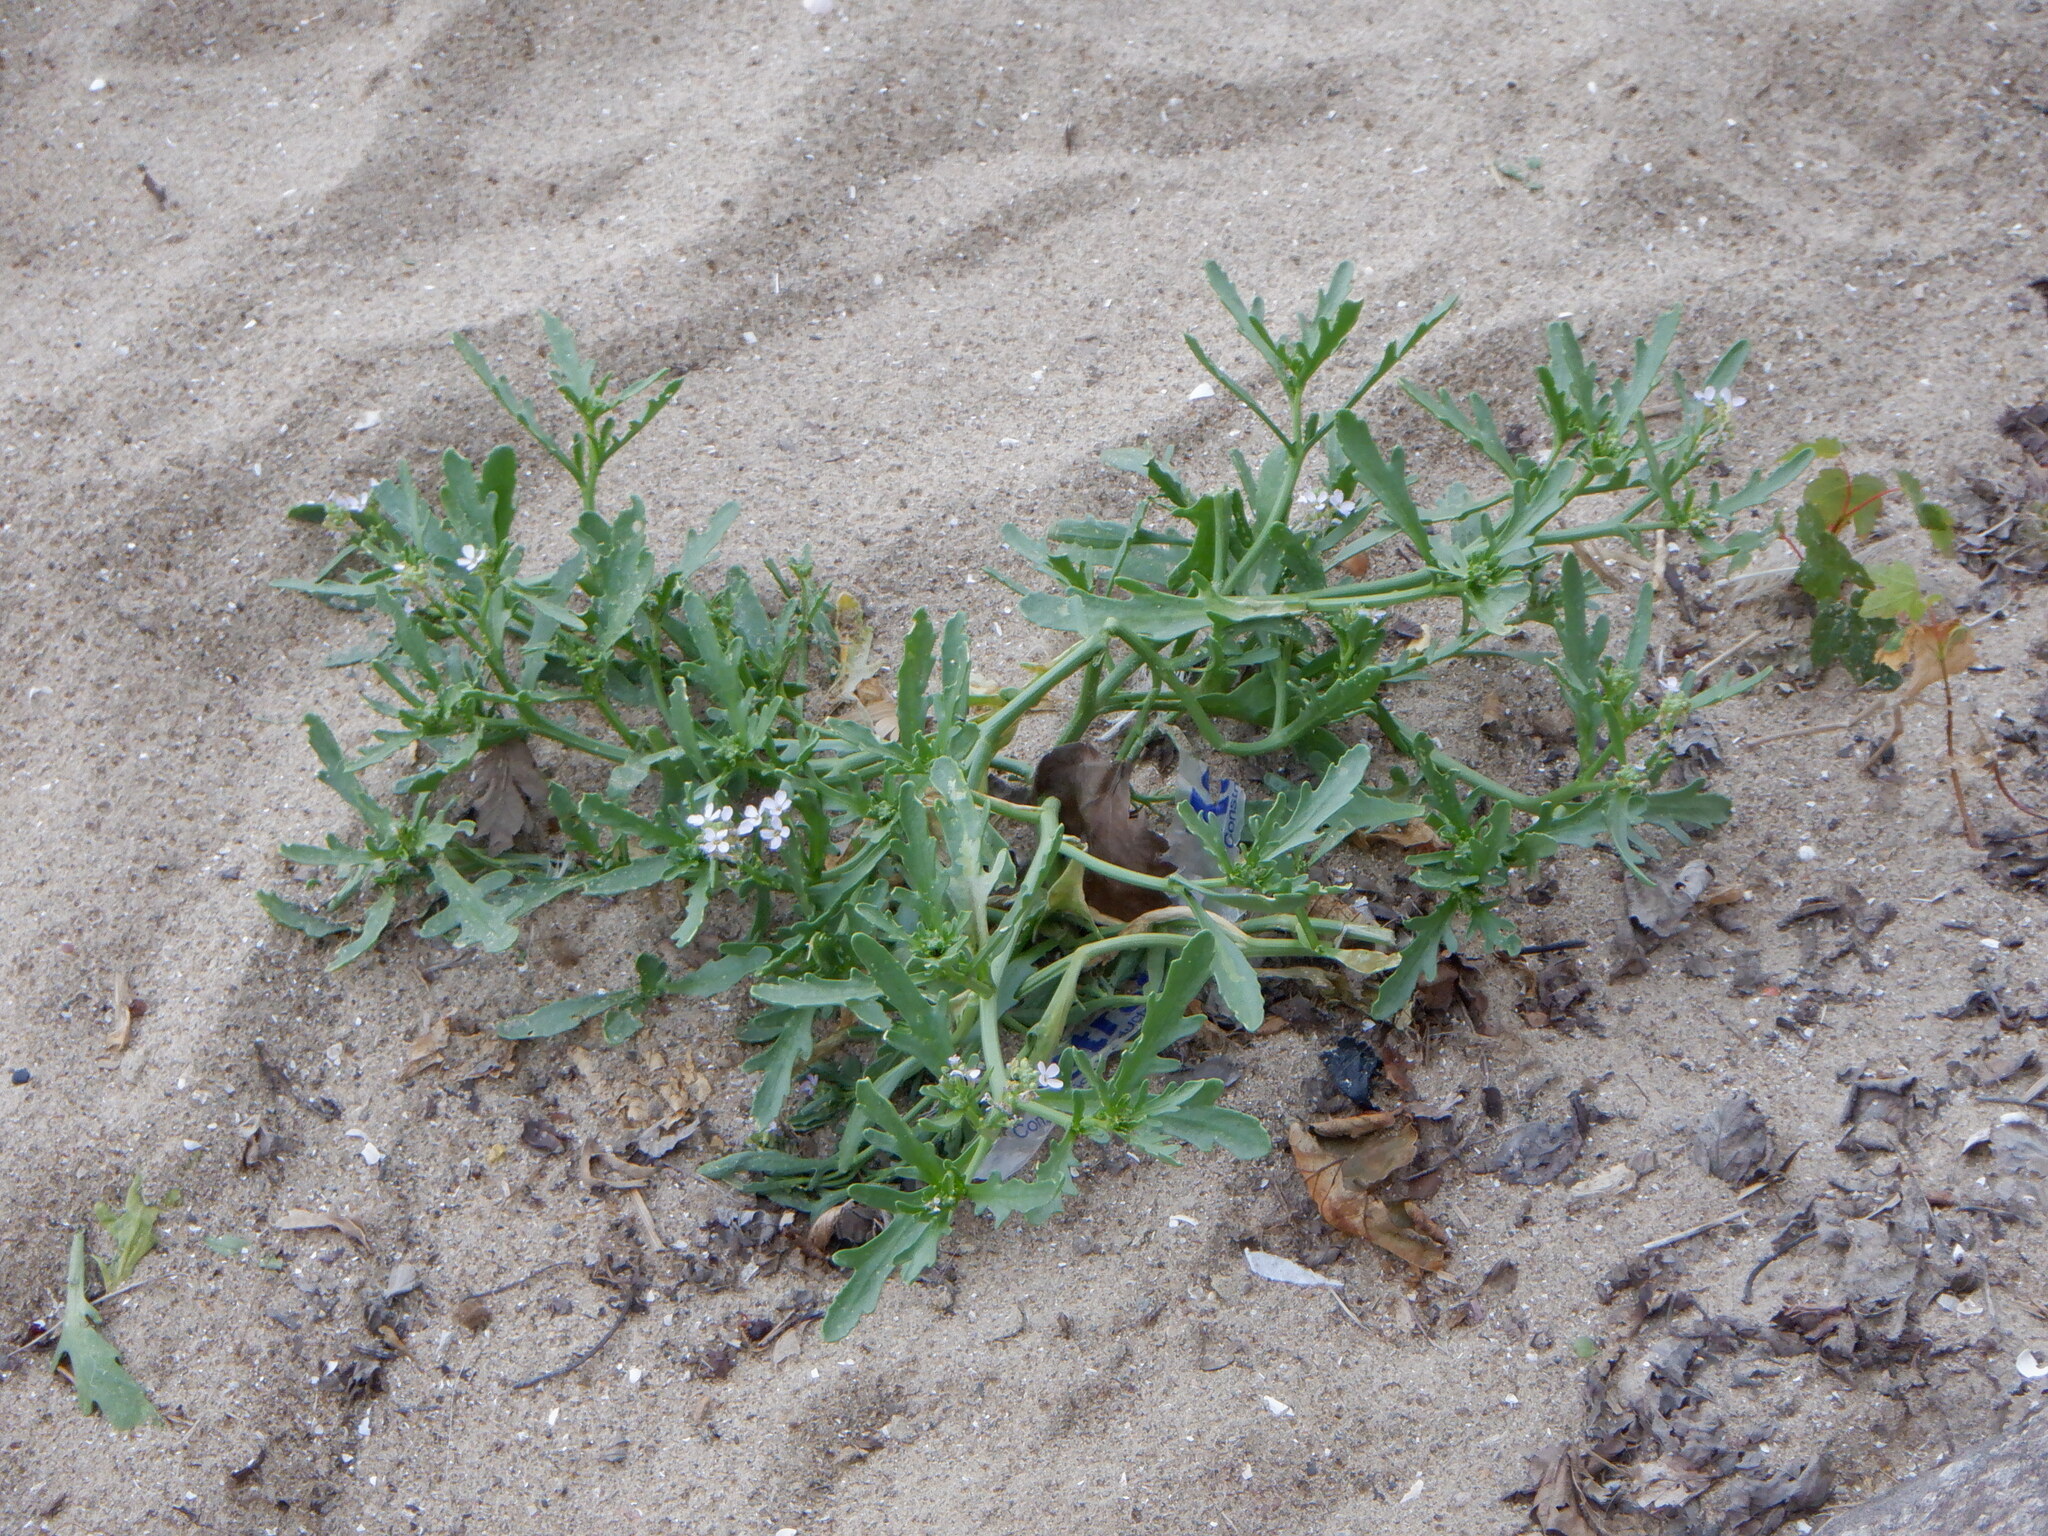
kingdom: Plantae
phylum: Tracheophyta
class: Magnoliopsida
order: Brassicales
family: Brassicaceae
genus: Cakile
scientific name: Cakile maritima
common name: Sea rocket
